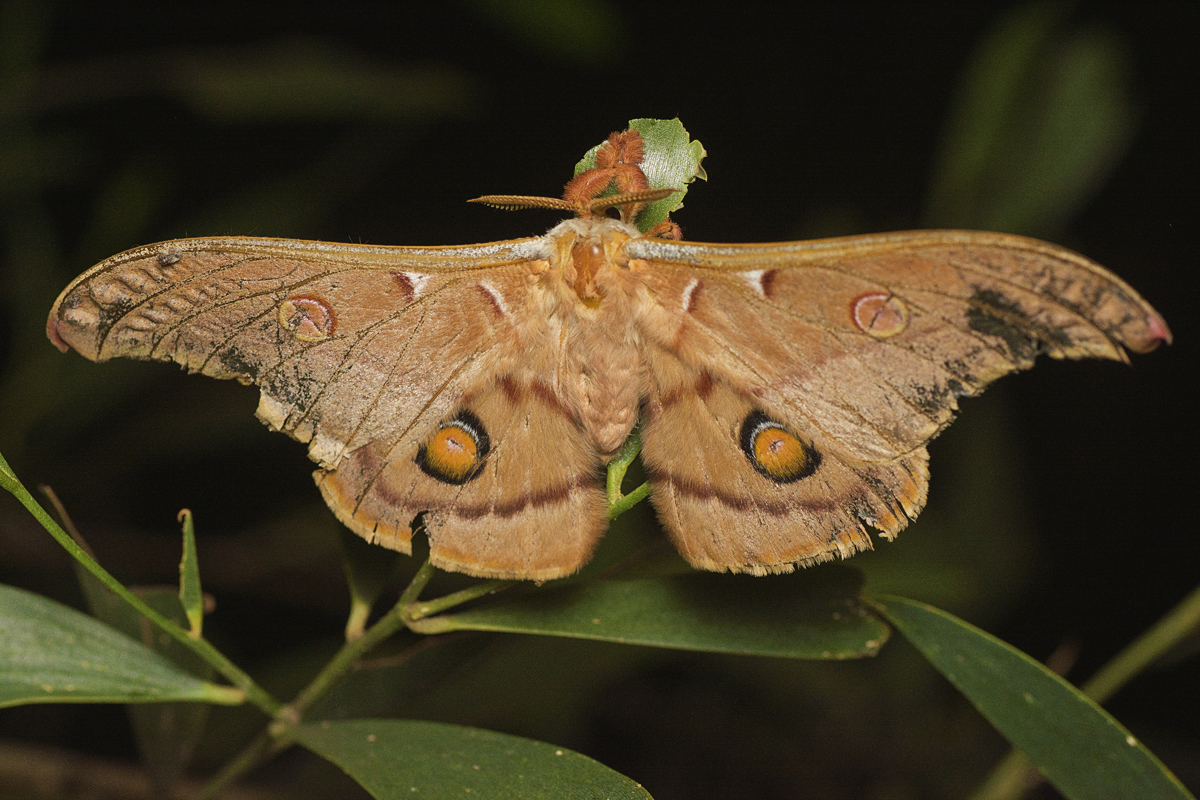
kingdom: Animalia
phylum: Arthropoda
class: Insecta
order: Lepidoptera
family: Saturniidae
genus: Opodiphthera
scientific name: Opodiphthera
